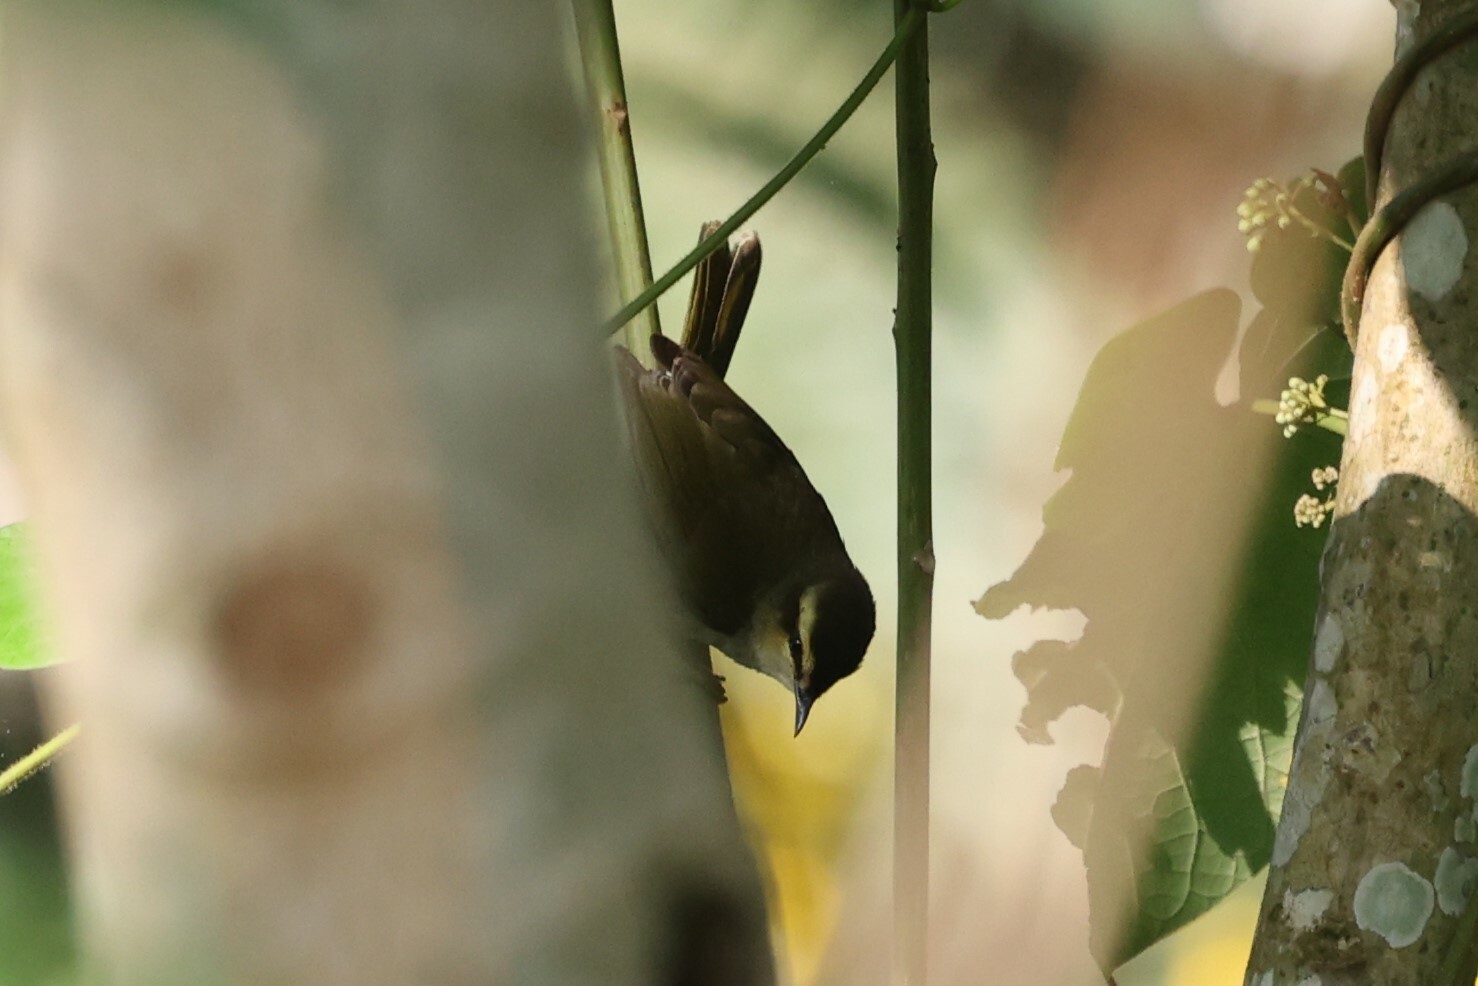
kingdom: Animalia
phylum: Chordata
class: Aves
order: Passeriformes
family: Cettiidae
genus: Hylia
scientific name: Hylia prasina
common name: Green hylia
